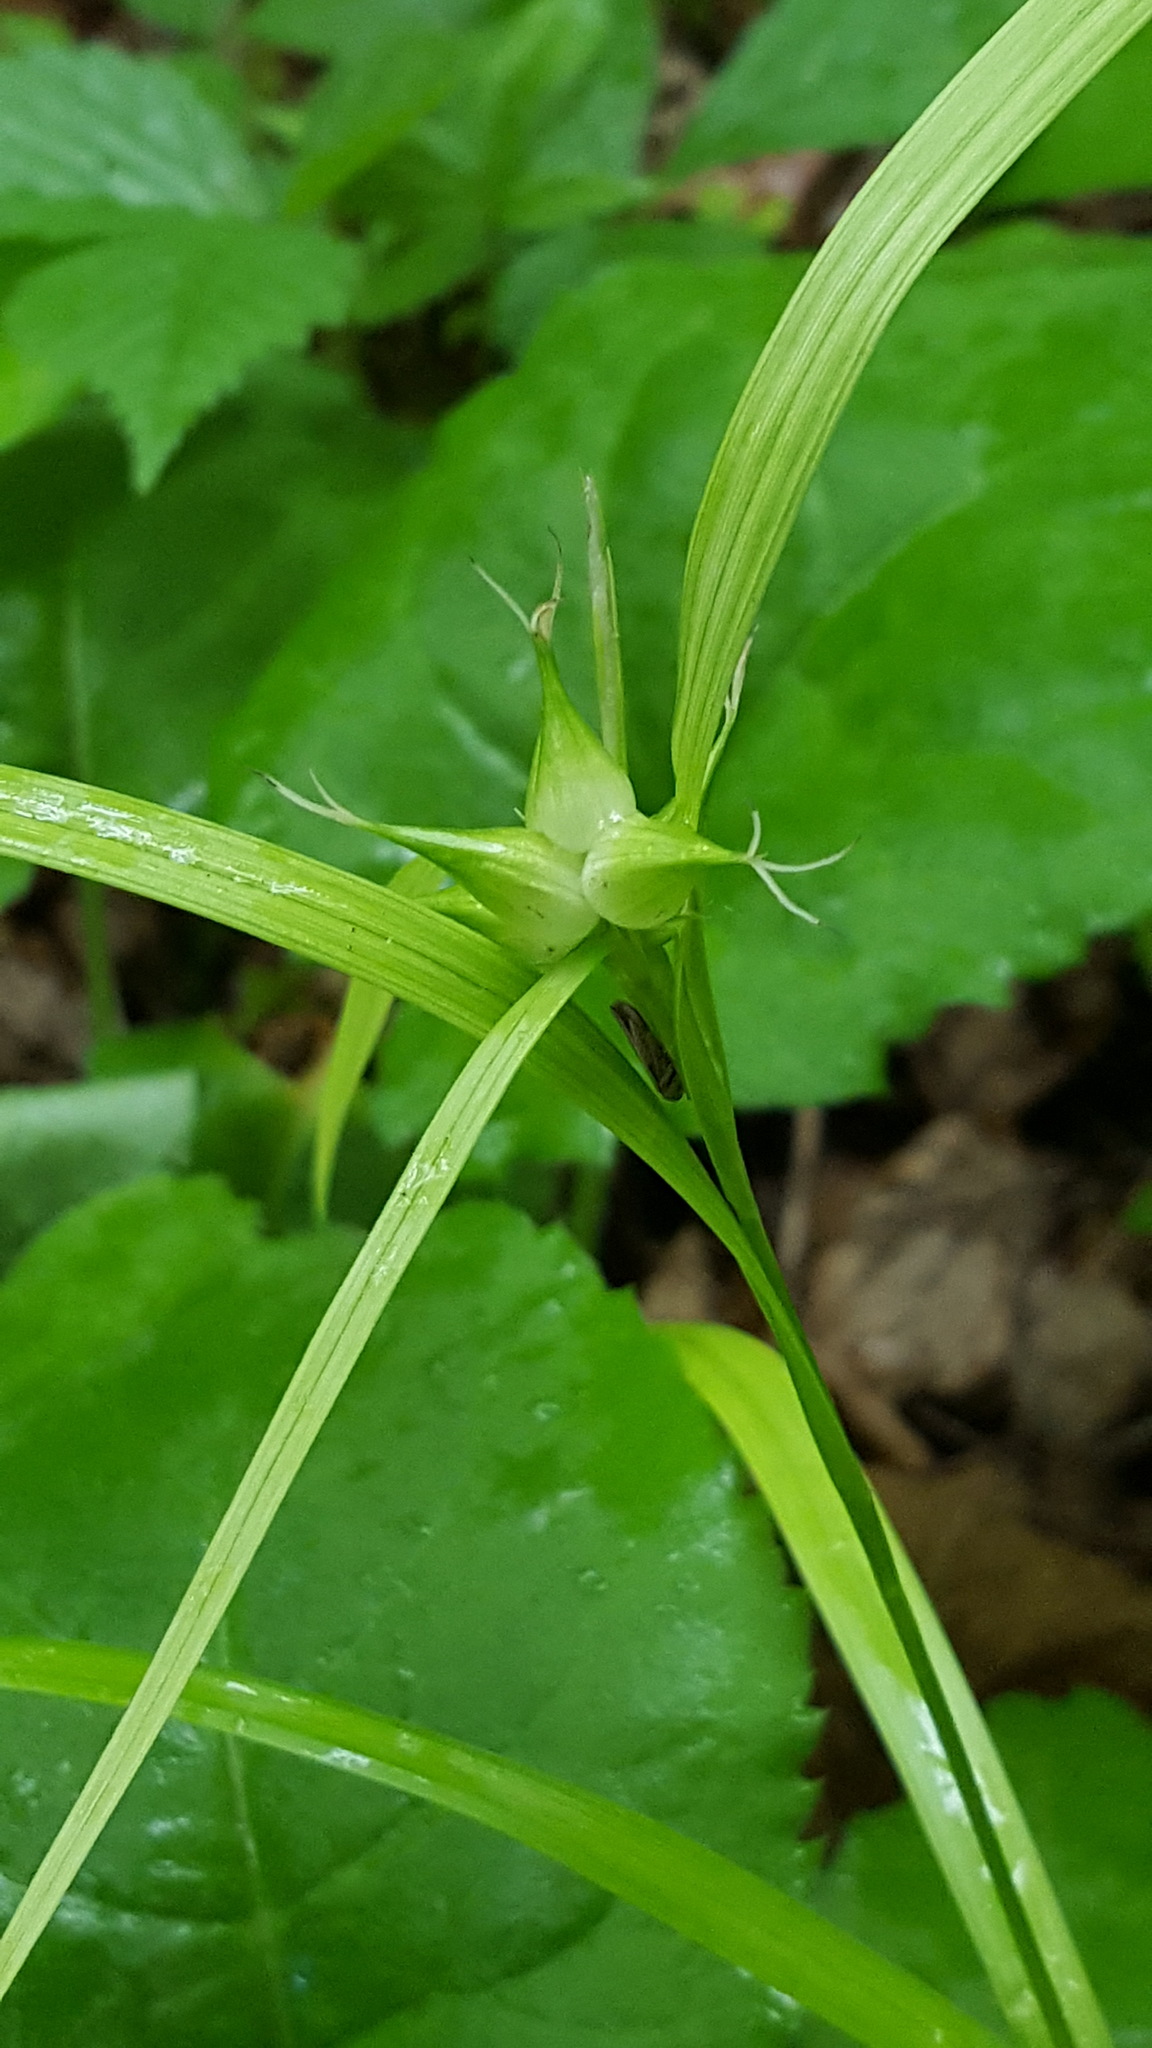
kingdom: Plantae
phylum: Tracheophyta
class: Liliopsida
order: Poales
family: Cyperaceae
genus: Carex
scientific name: Carex intumescens
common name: Greater bladder sedge
